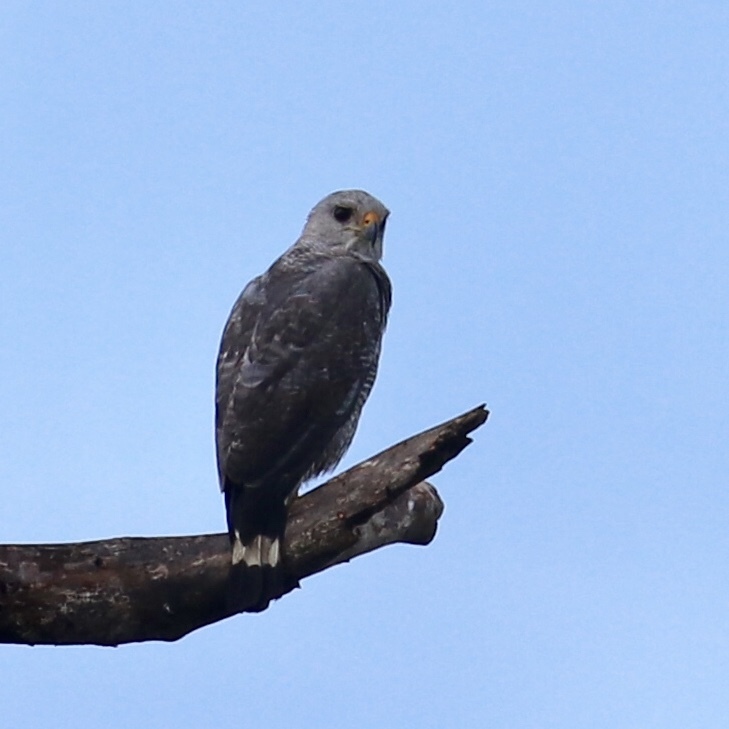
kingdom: Animalia
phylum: Chordata
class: Aves
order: Accipitriformes
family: Accipitridae
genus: Buteo
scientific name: Buteo nitidus
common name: Grey-lined hawk
